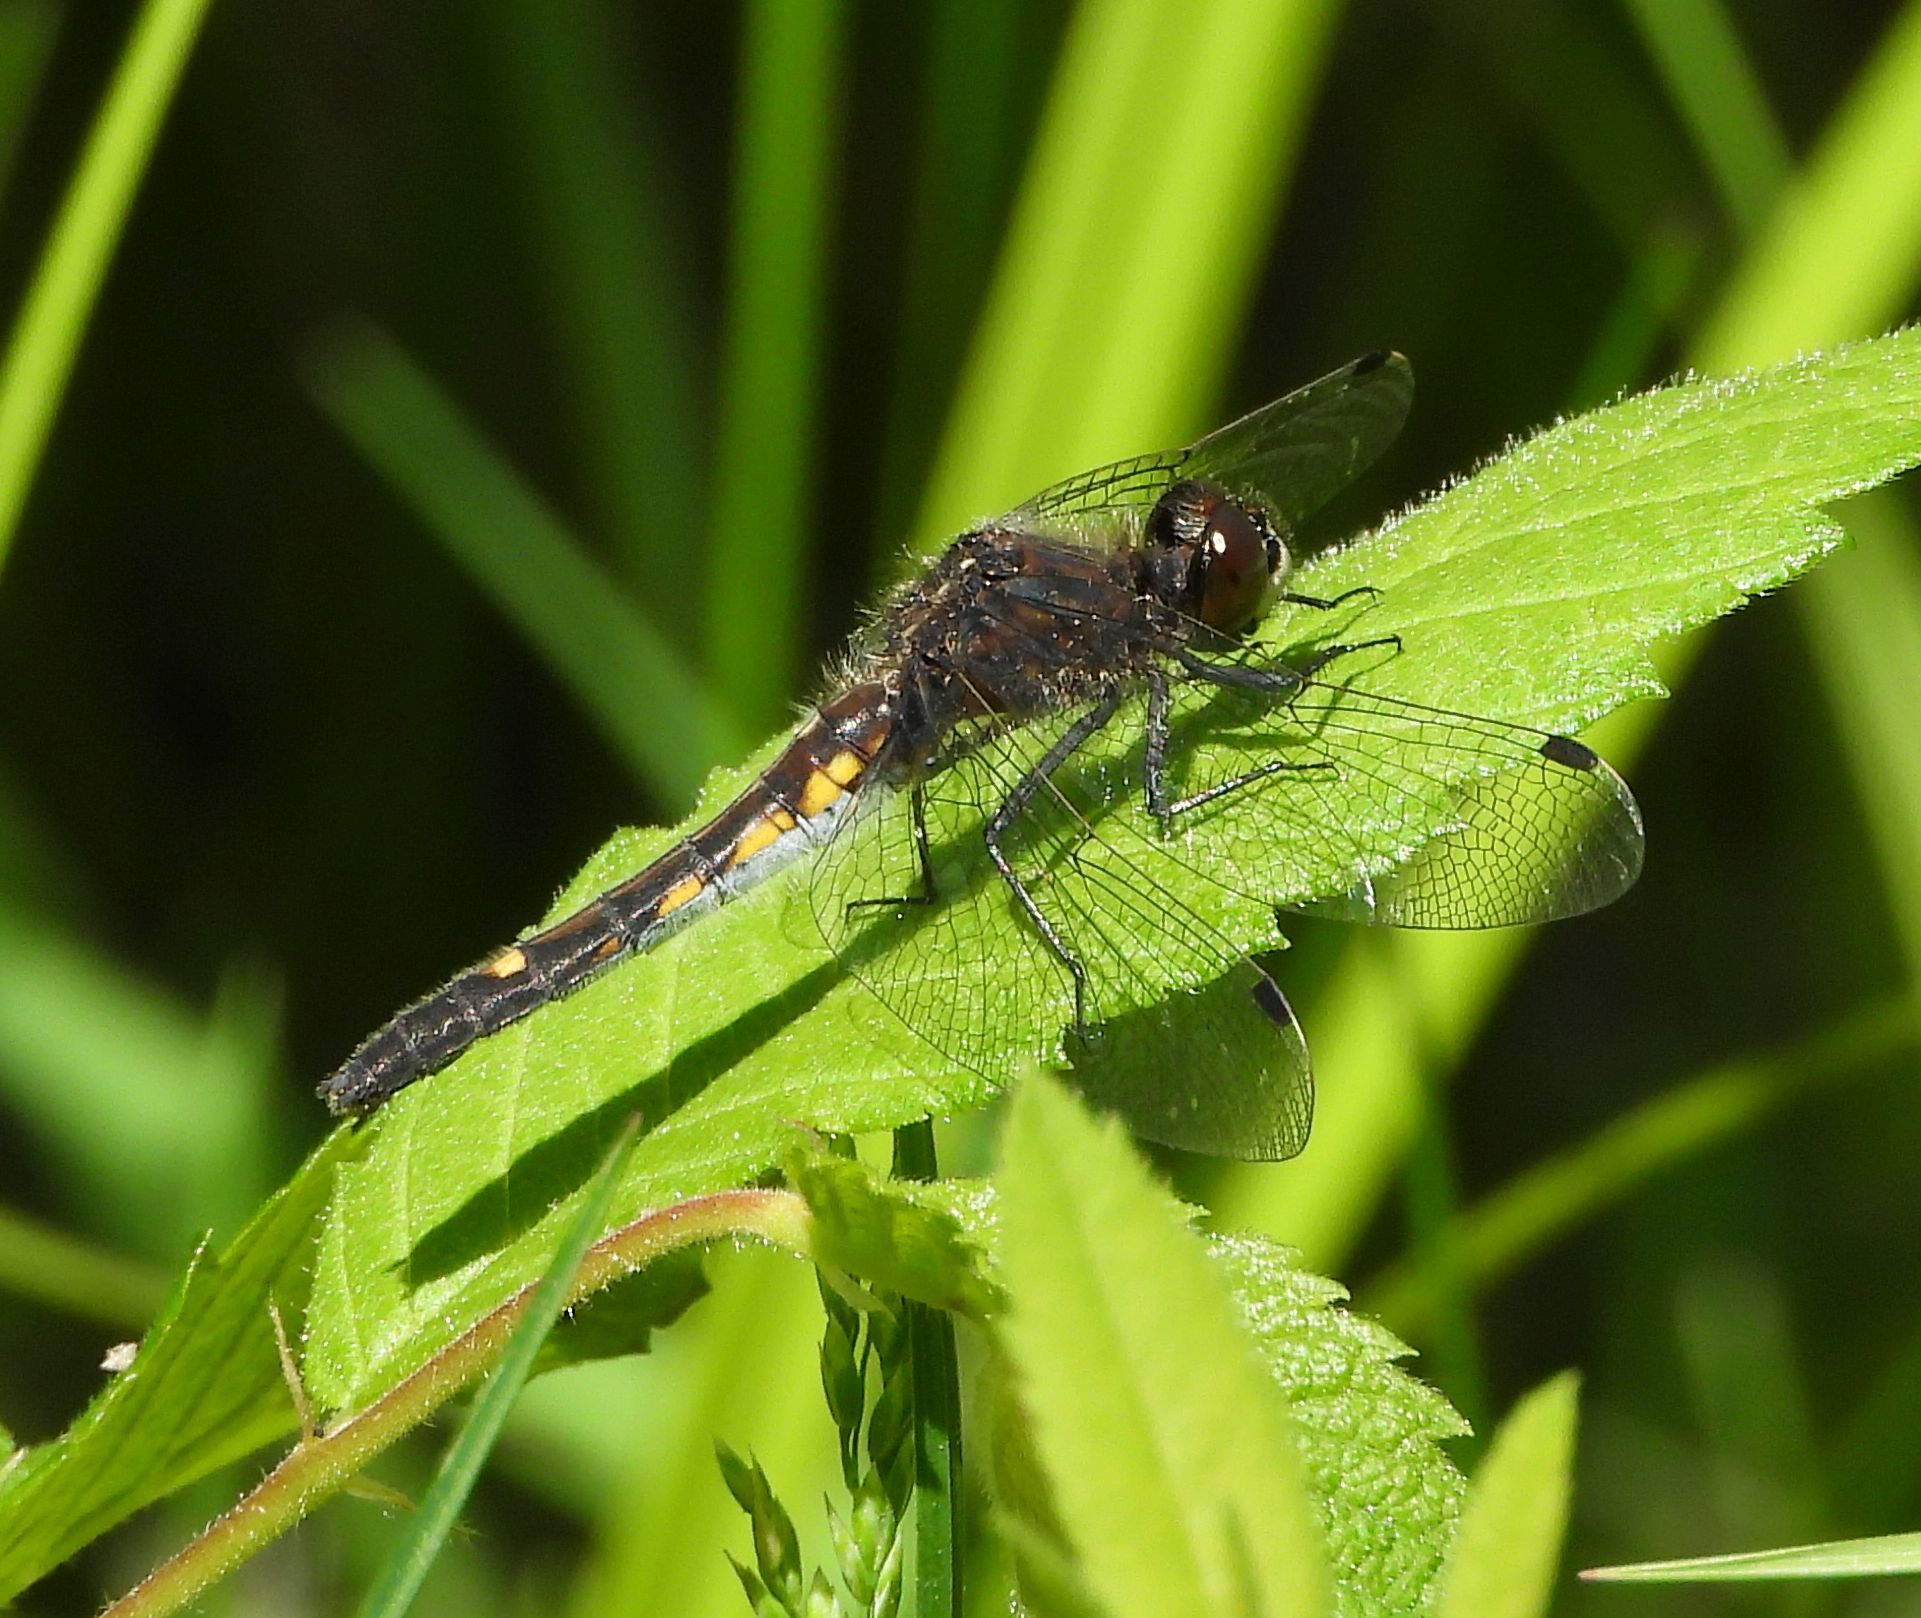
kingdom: Animalia
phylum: Arthropoda
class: Insecta
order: Odonata
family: Libellulidae
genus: Leucorrhinia
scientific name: Leucorrhinia intacta
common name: Dot-tailed whiteface
